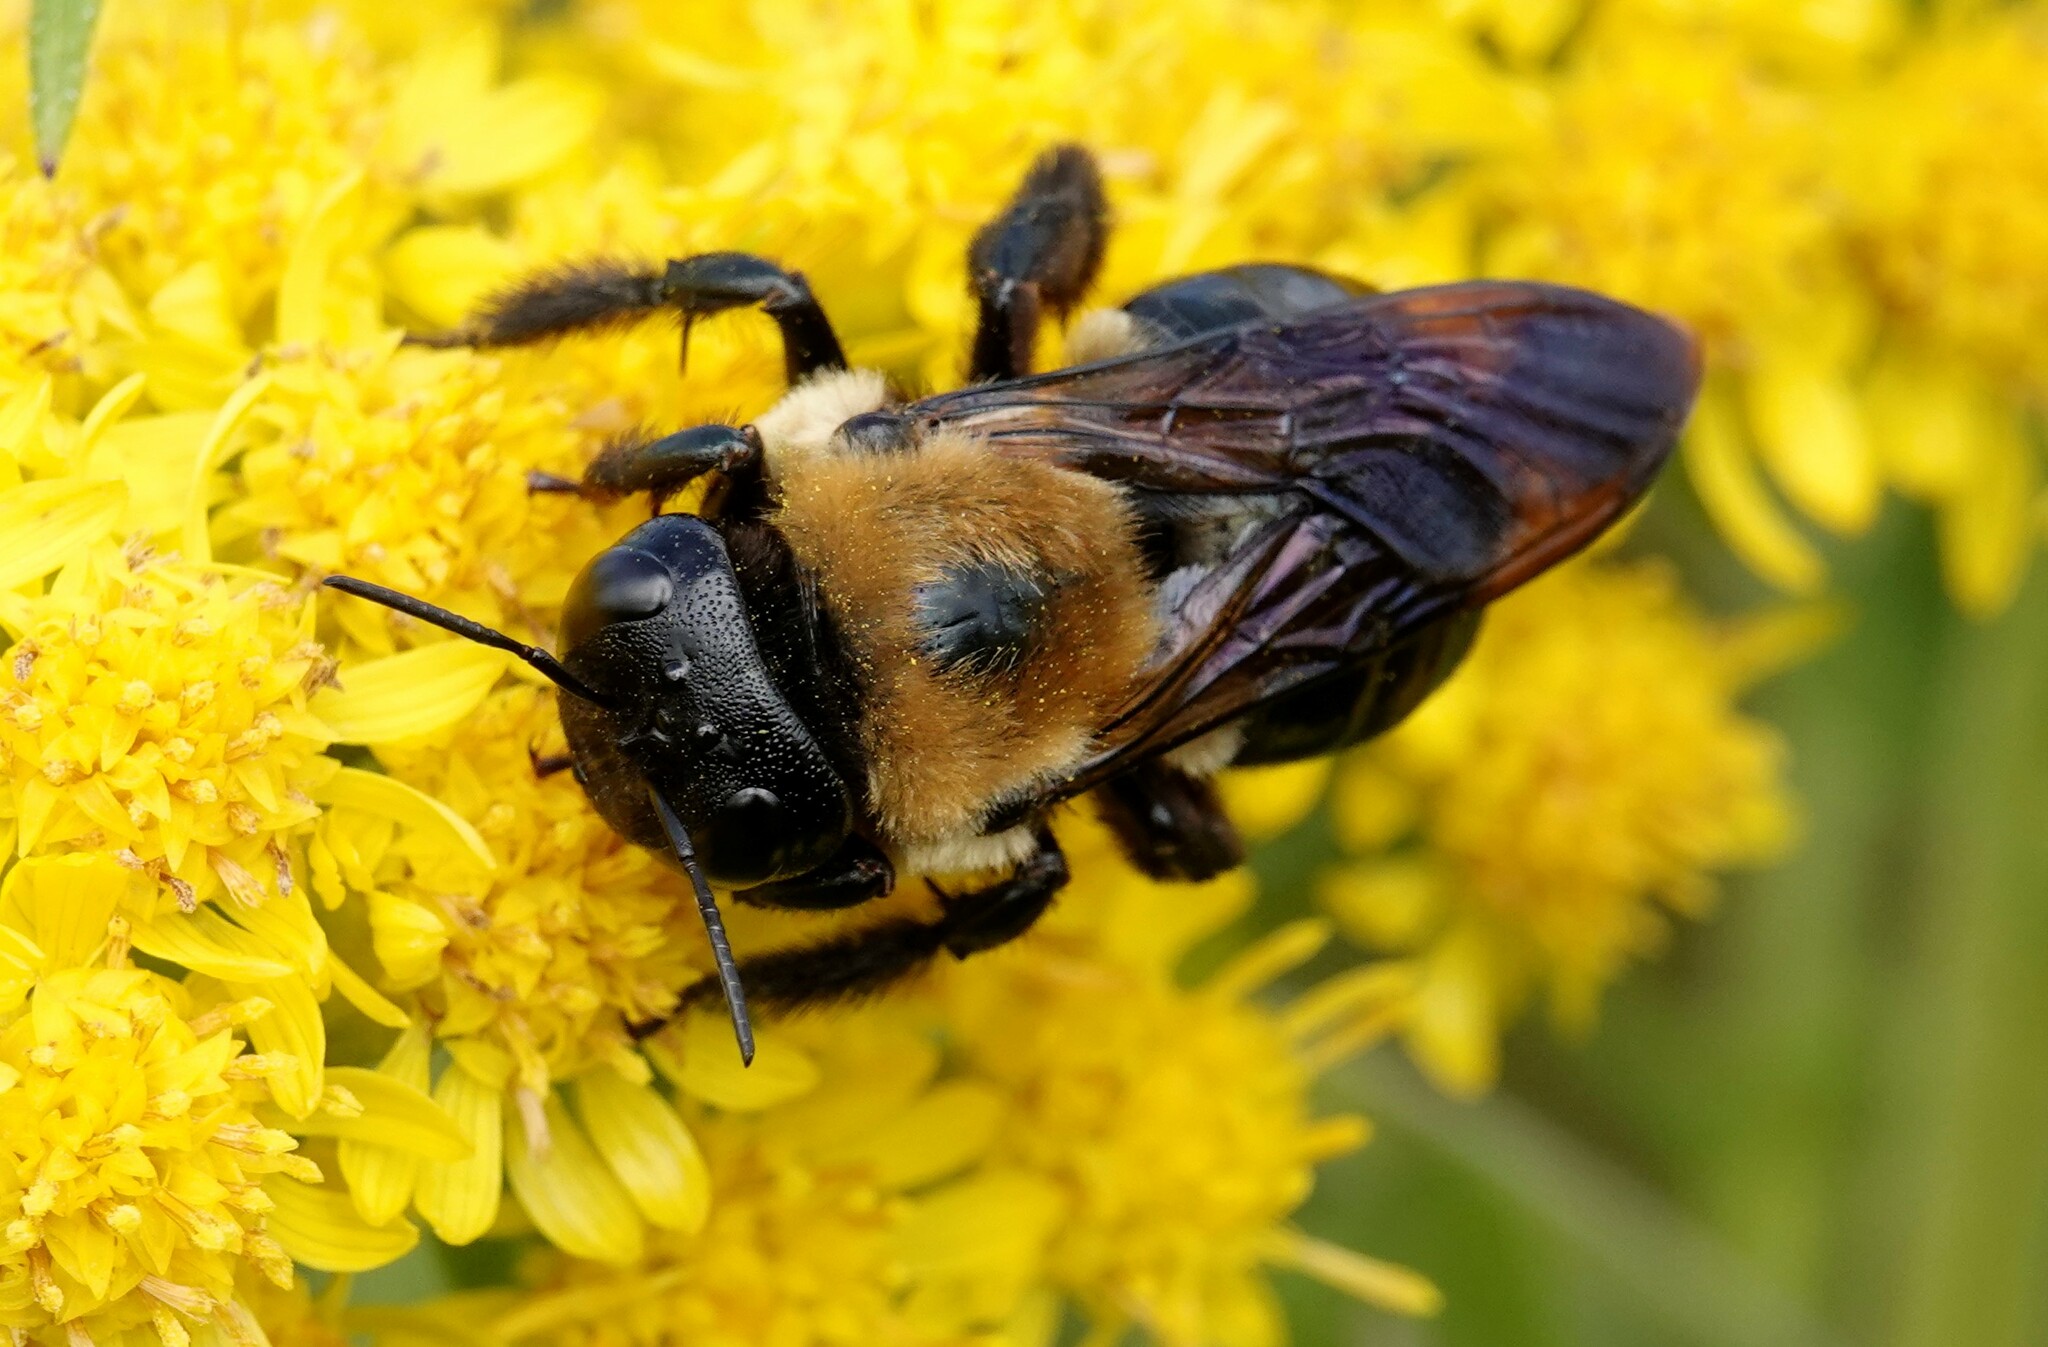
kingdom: Animalia
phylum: Arthropoda
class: Insecta
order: Hymenoptera
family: Apidae
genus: Xylocopa
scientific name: Xylocopa virginica
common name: Carpenter bee
